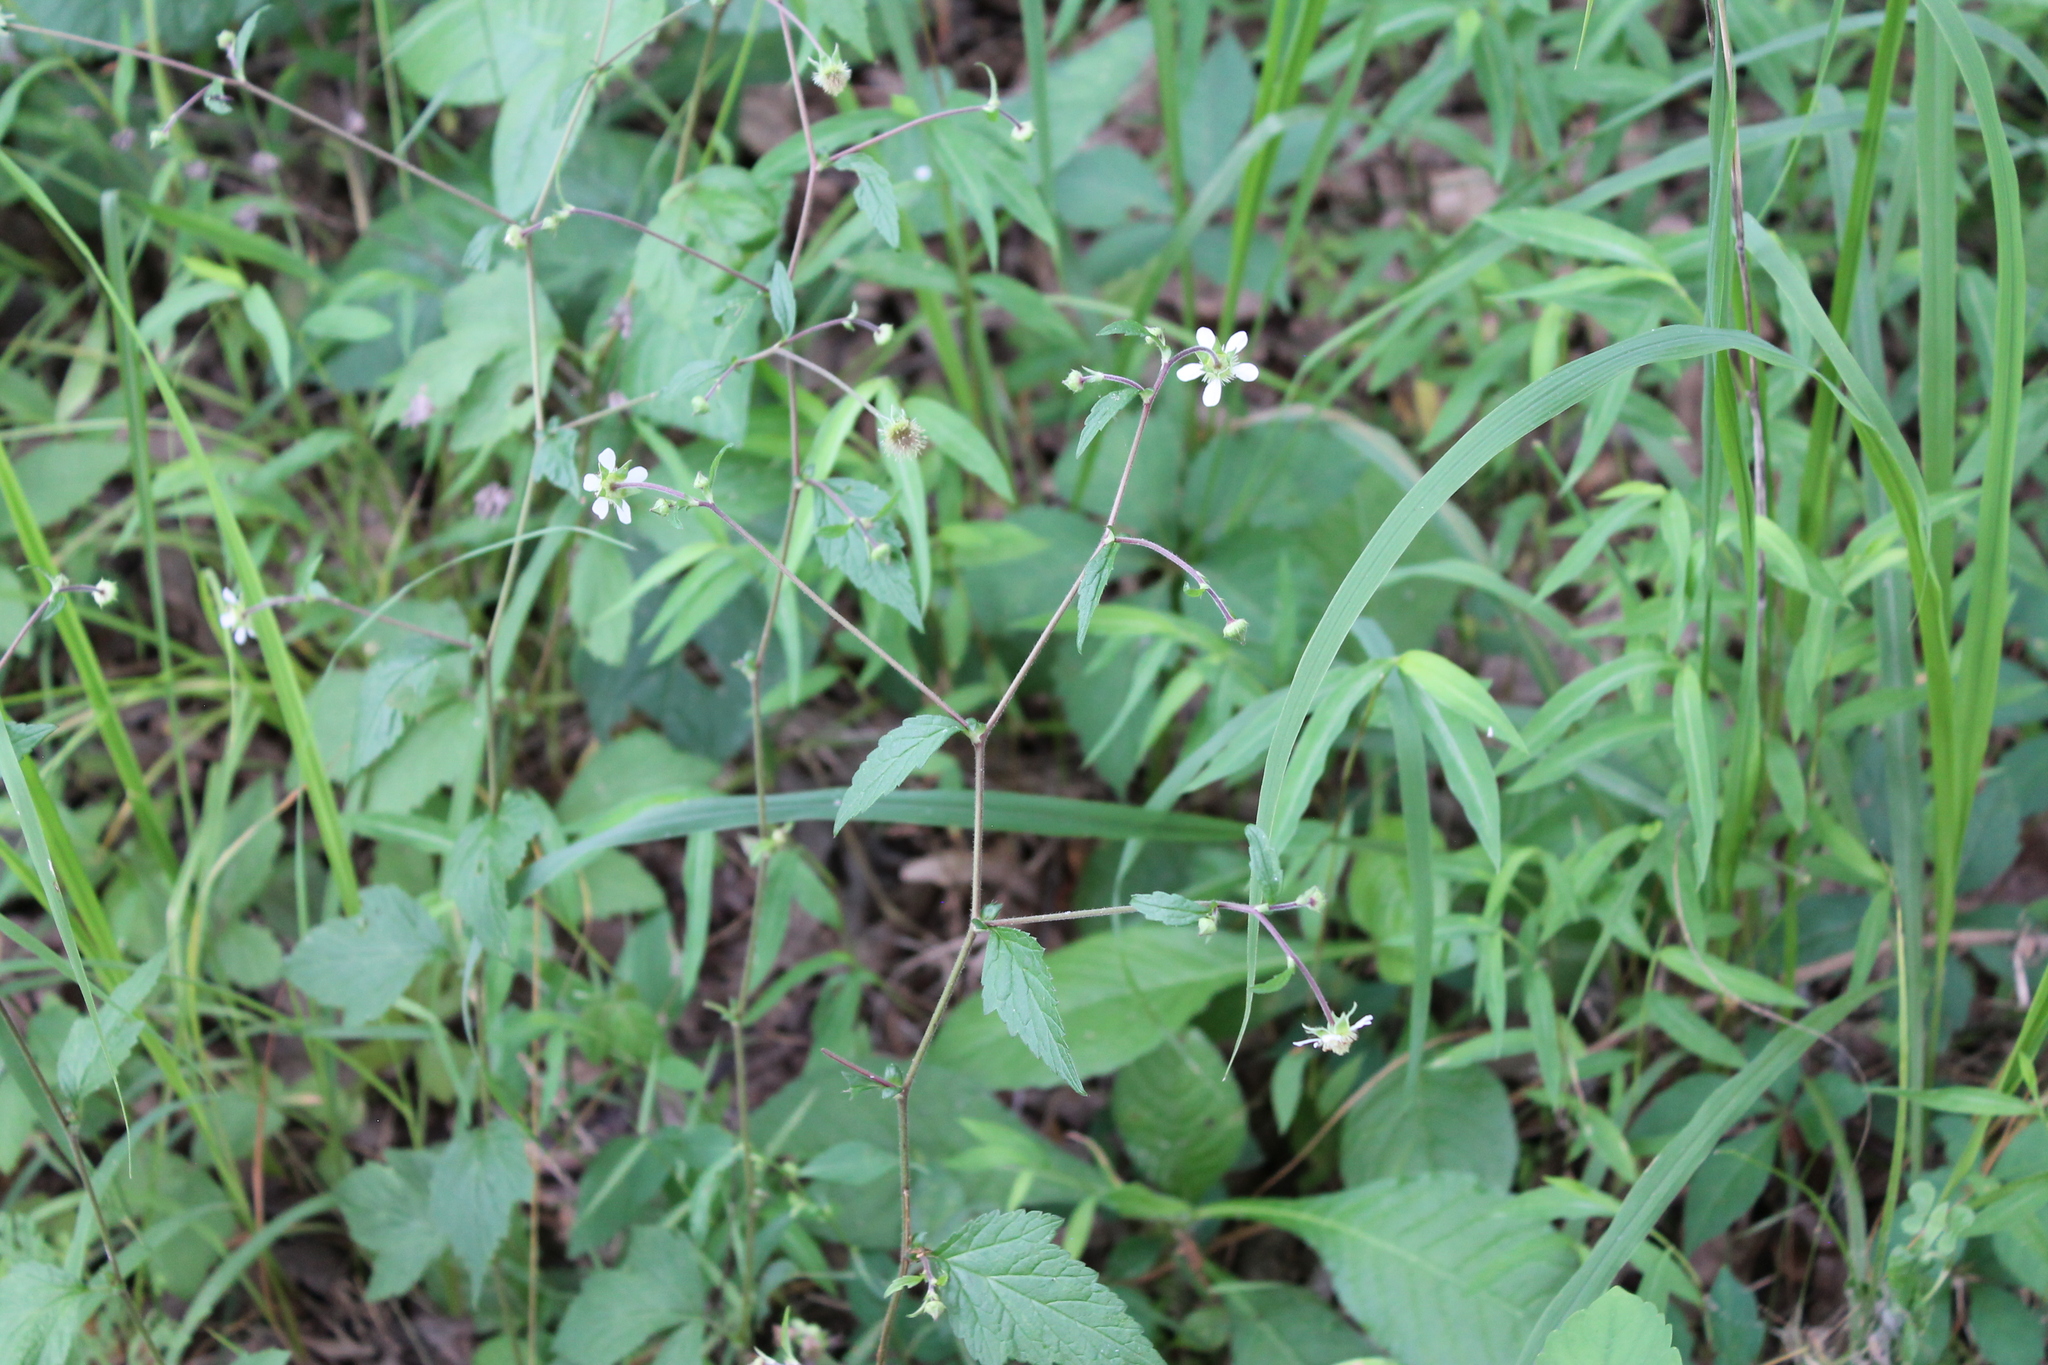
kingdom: Plantae
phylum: Tracheophyta
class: Magnoliopsida
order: Rosales
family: Rosaceae
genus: Geum
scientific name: Geum canadense
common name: White avens
